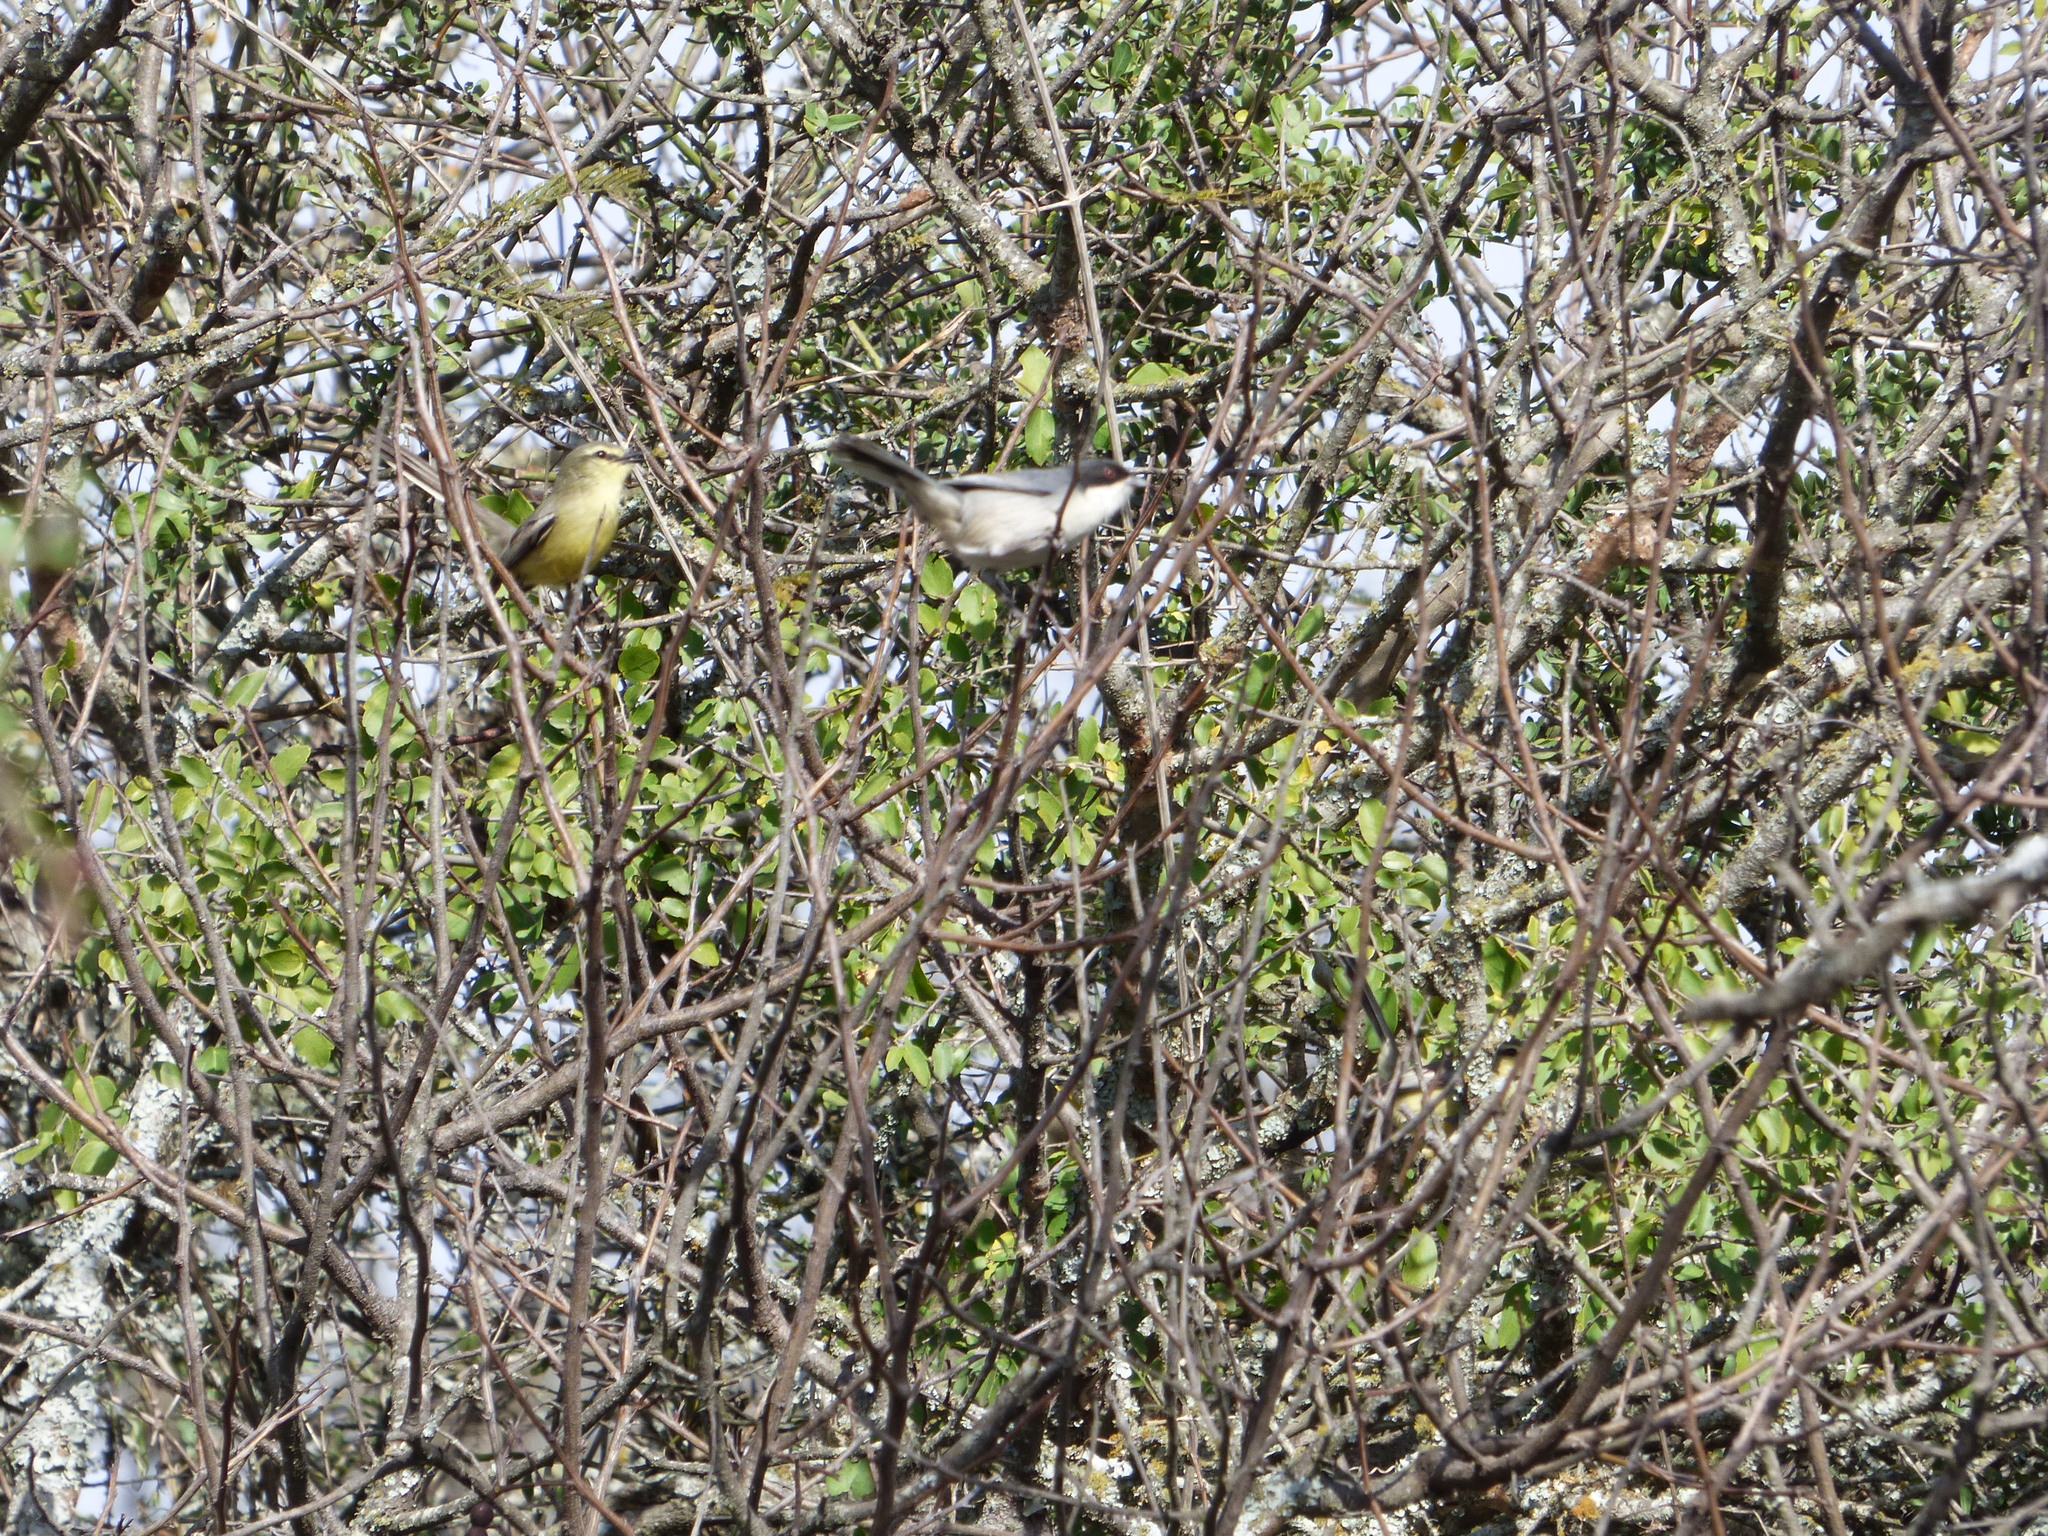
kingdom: Animalia
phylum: Chordata
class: Aves
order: Passeriformes
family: Tyrannidae
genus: Stigmatura
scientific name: Stigmatura budytoides
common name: Greater wagtail-tyrant
